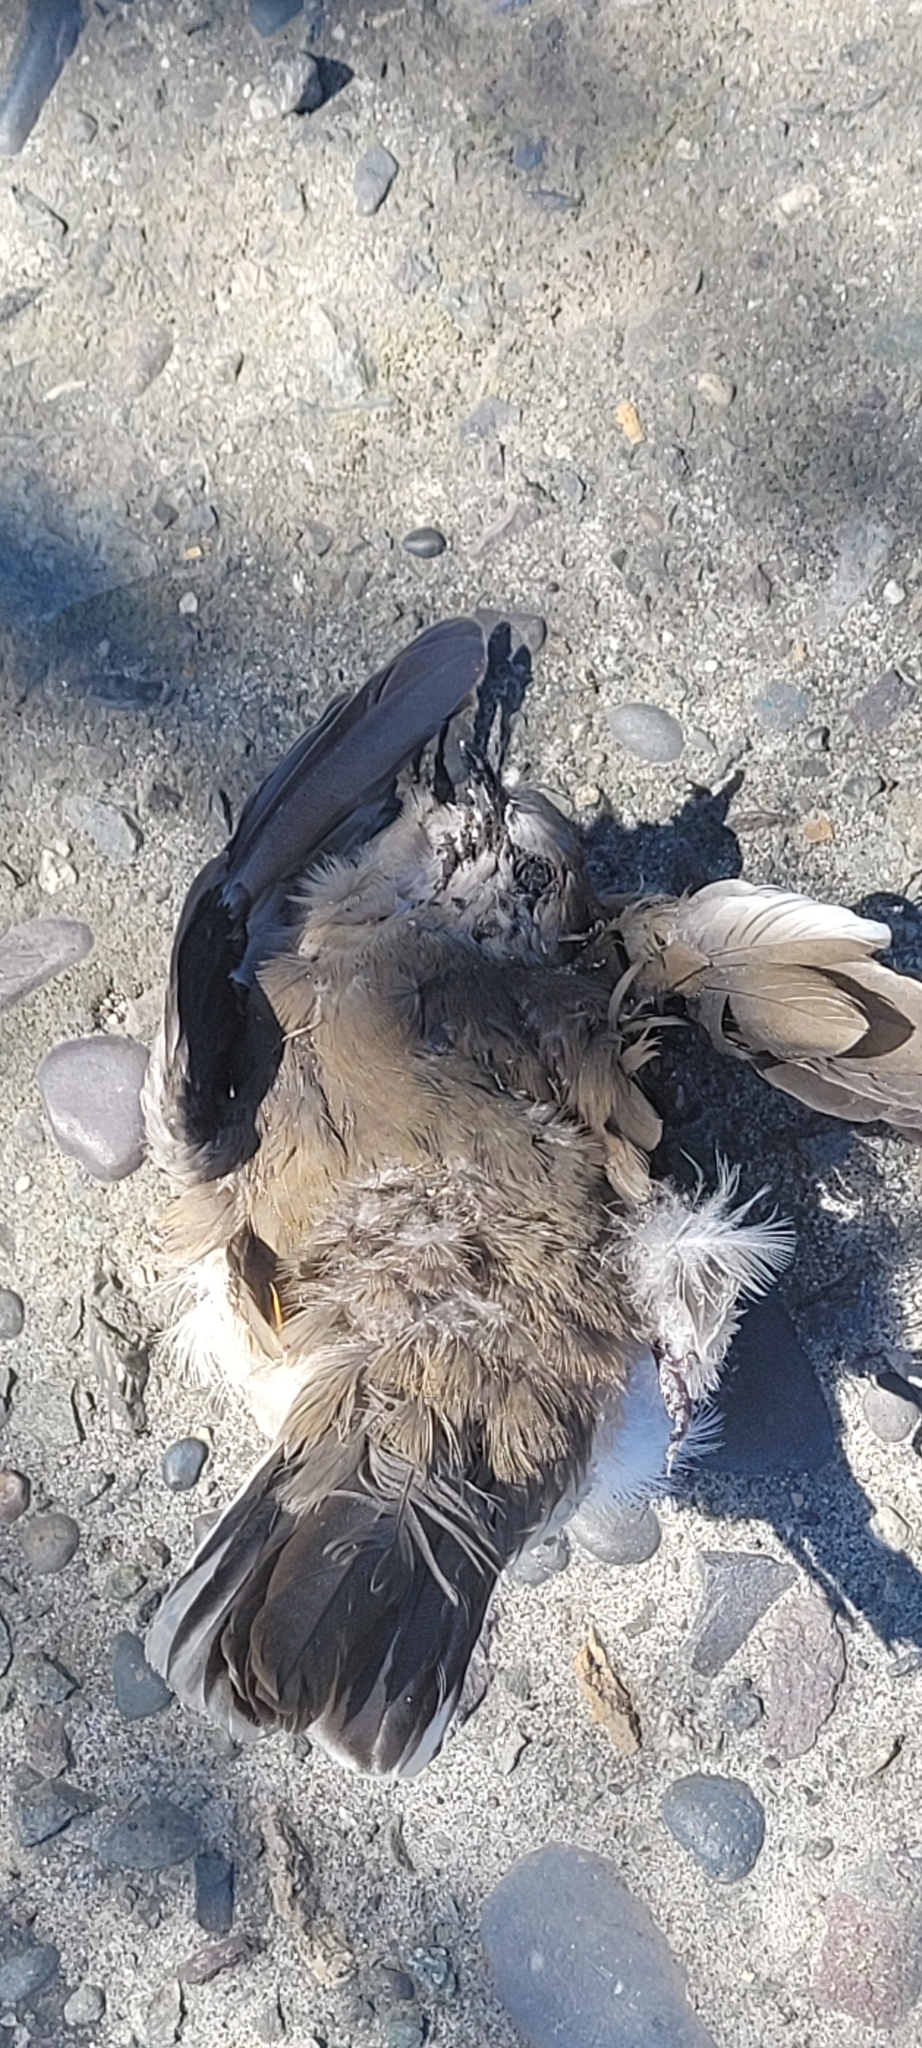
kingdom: Animalia
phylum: Chordata
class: Aves
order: Columbiformes
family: Columbidae
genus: Columbina
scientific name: Columbina picui
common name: Picui ground dove
